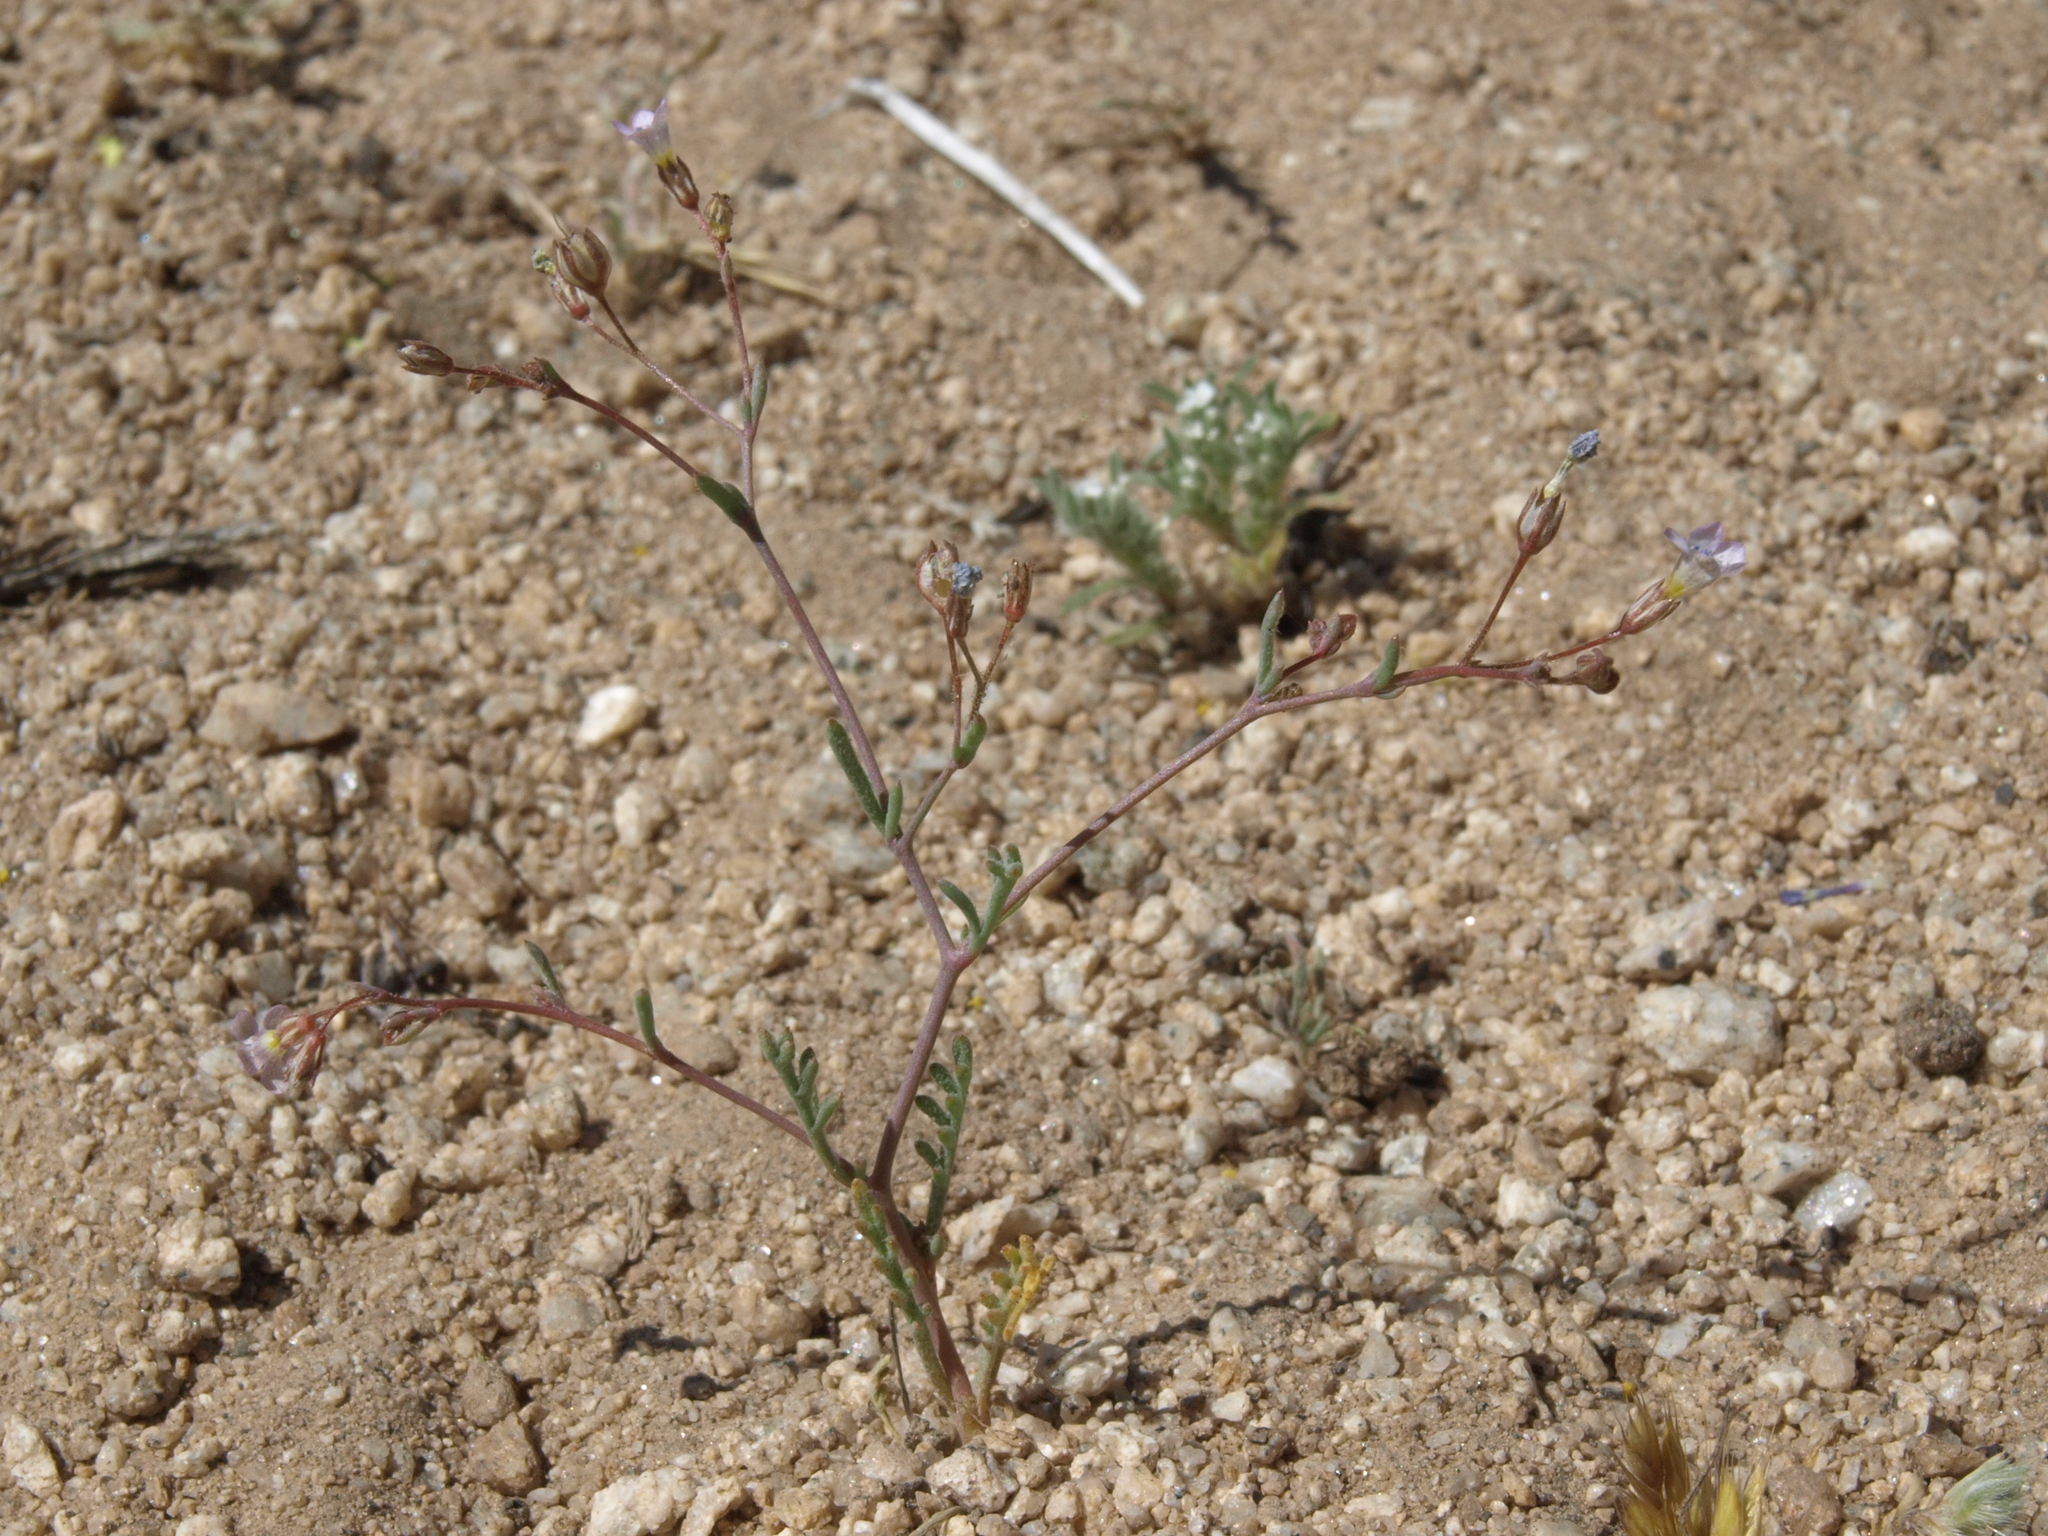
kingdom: Plantae
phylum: Tracheophyta
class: Magnoliopsida
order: Ericales
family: Polemoniaceae
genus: Gilia
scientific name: Gilia ochroleuca
